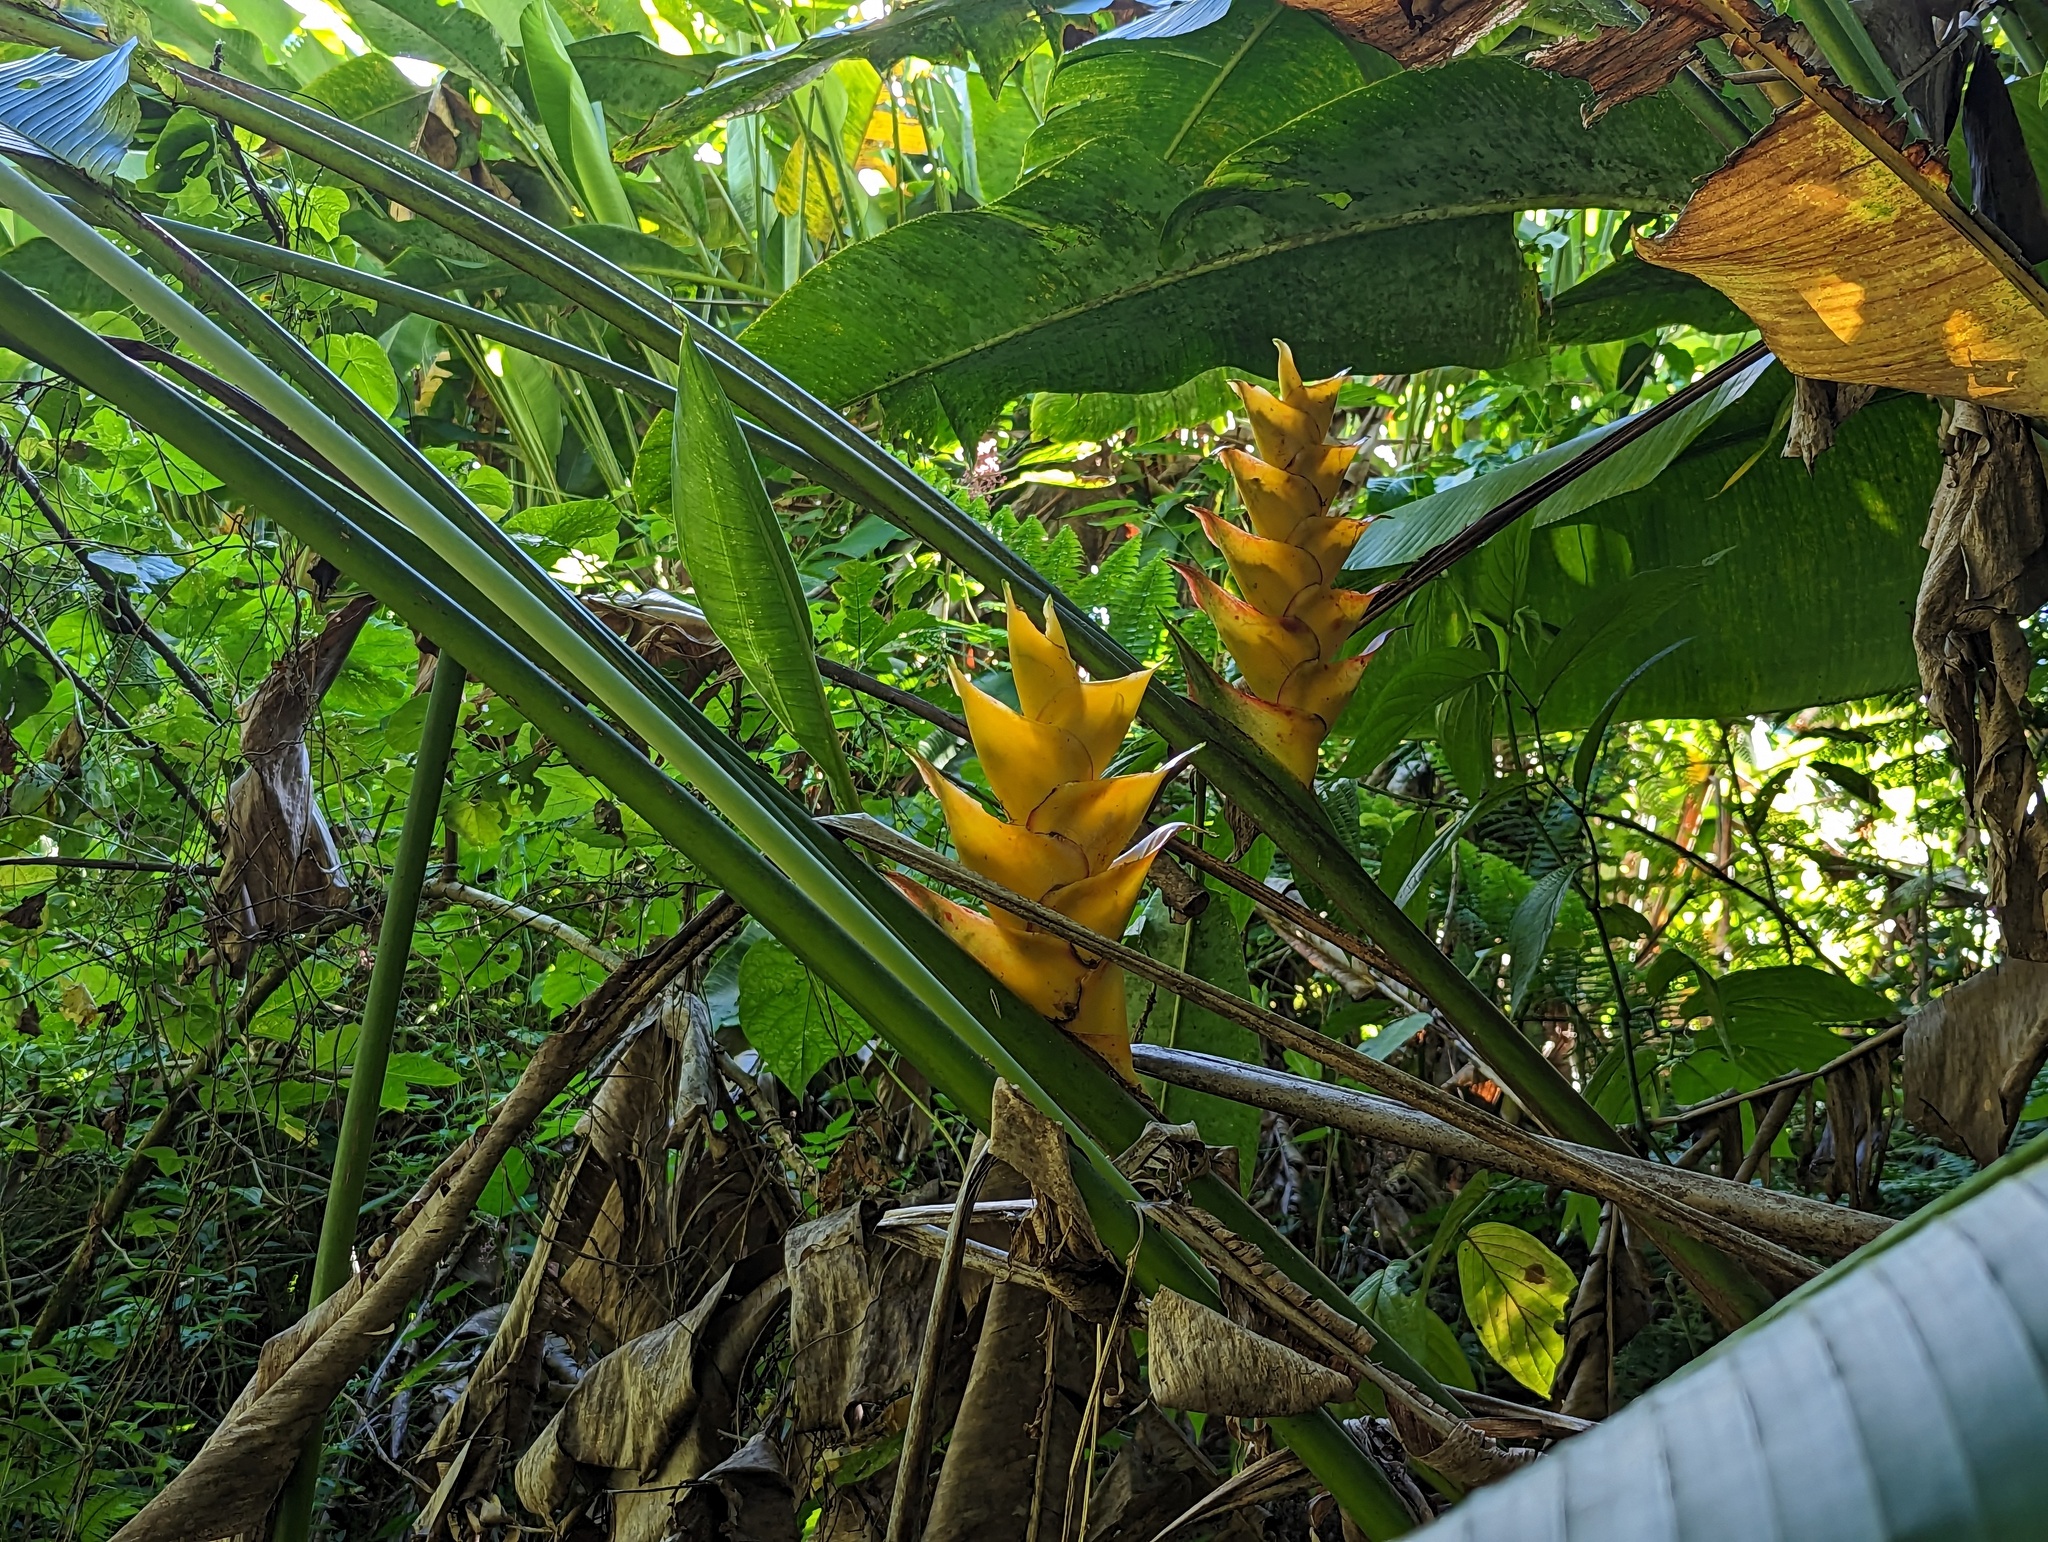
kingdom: Plantae
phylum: Tracheophyta
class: Liliopsida
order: Zingiberales
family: Heliconiaceae
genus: Heliconia
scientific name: Heliconia caribaea
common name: Wild plantain
